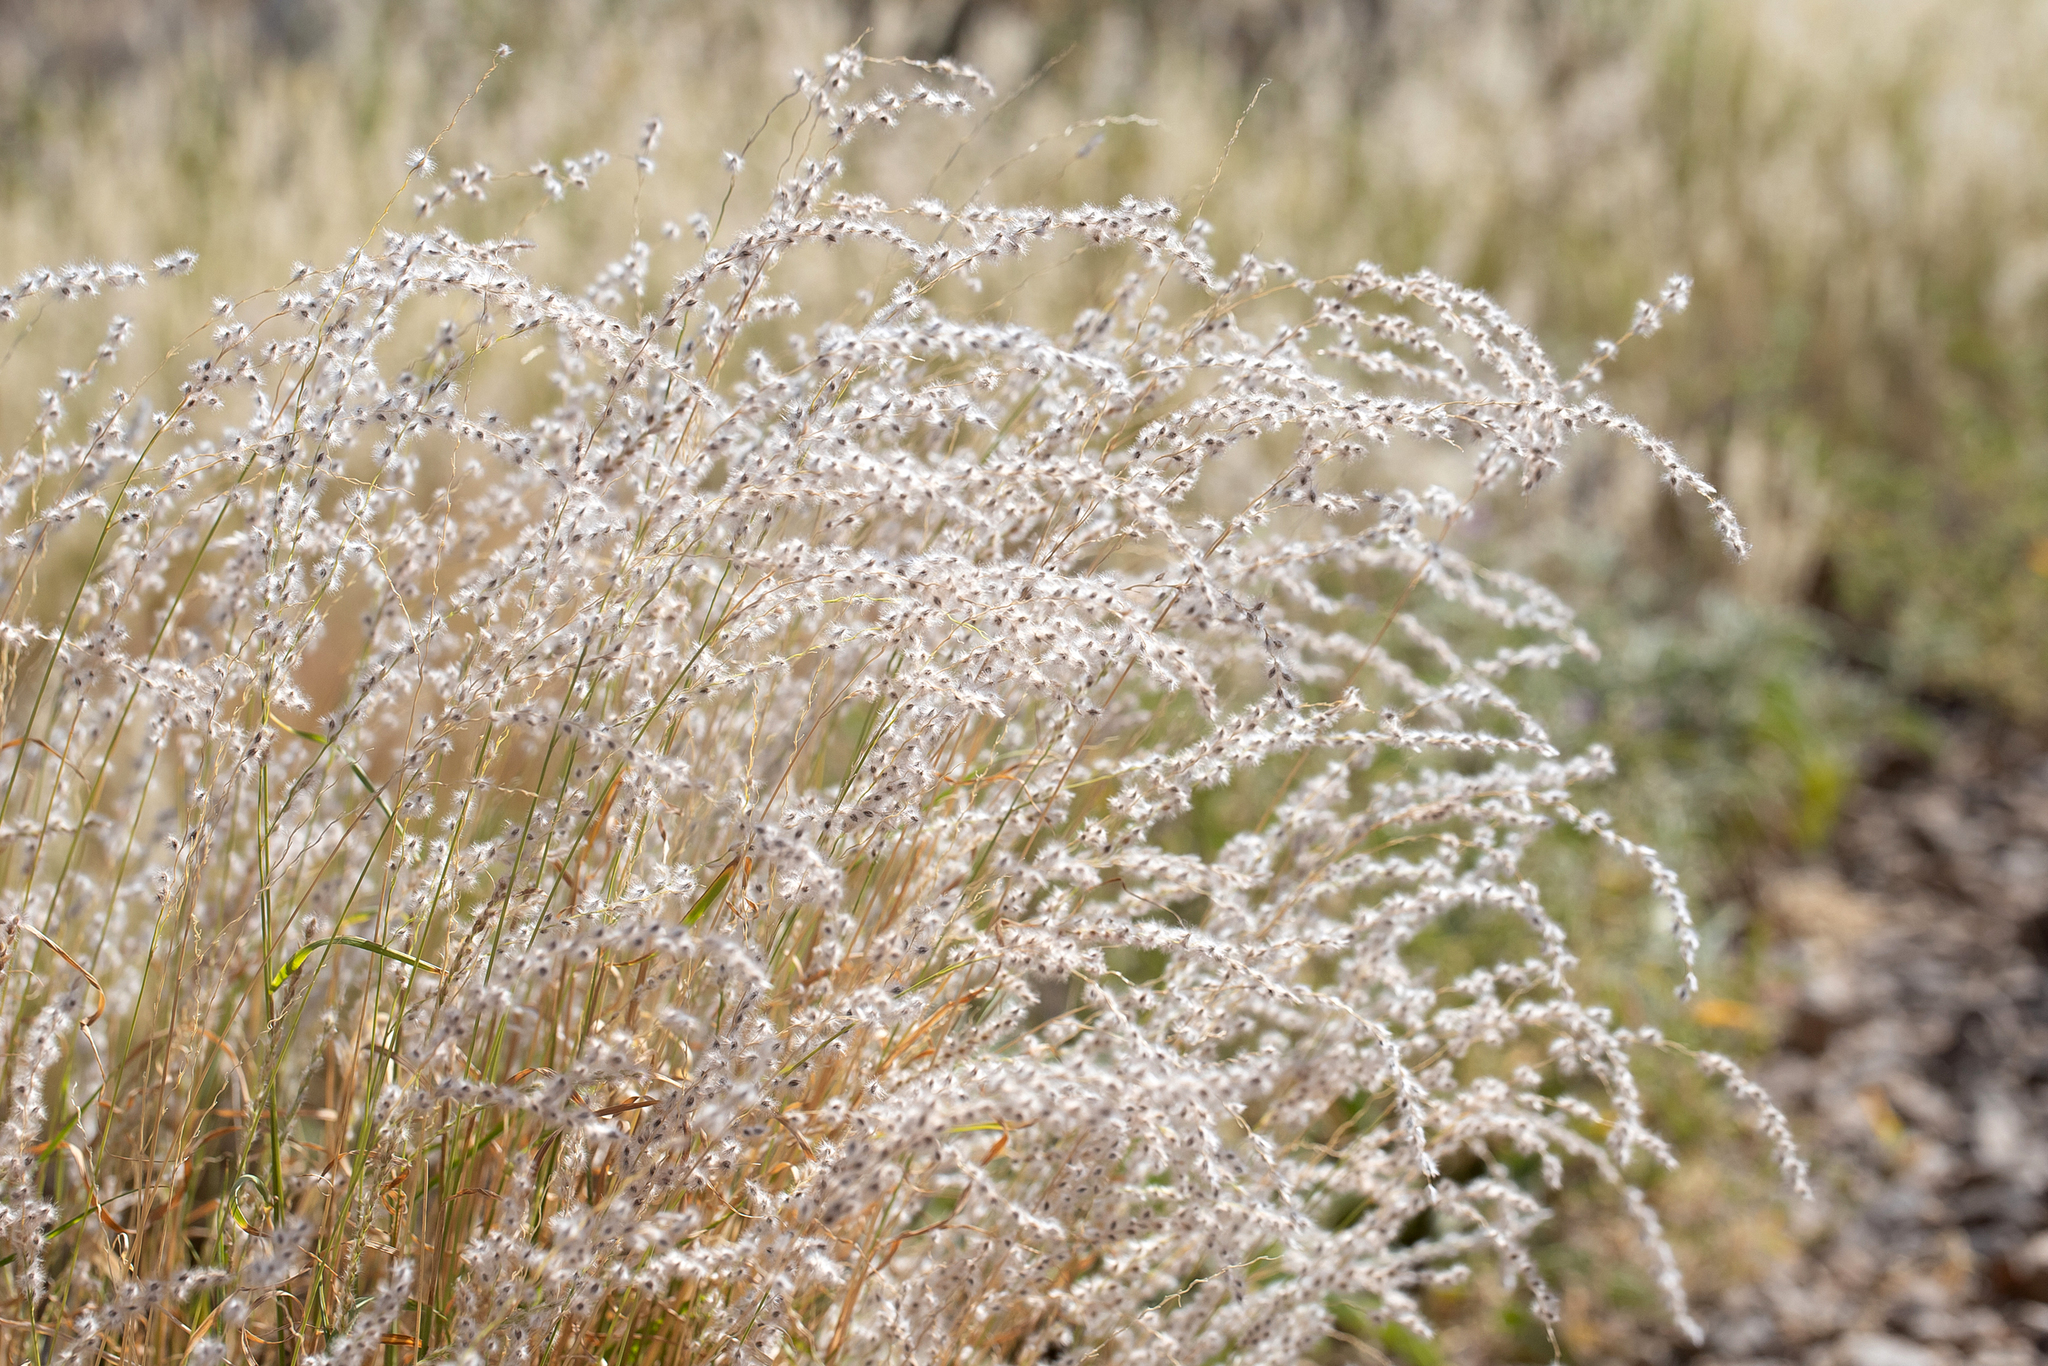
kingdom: Plantae
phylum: Tracheophyta
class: Liliopsida
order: Poales
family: Poaceae
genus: Digitaria
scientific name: Digitaria brownii
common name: Cotton grass
